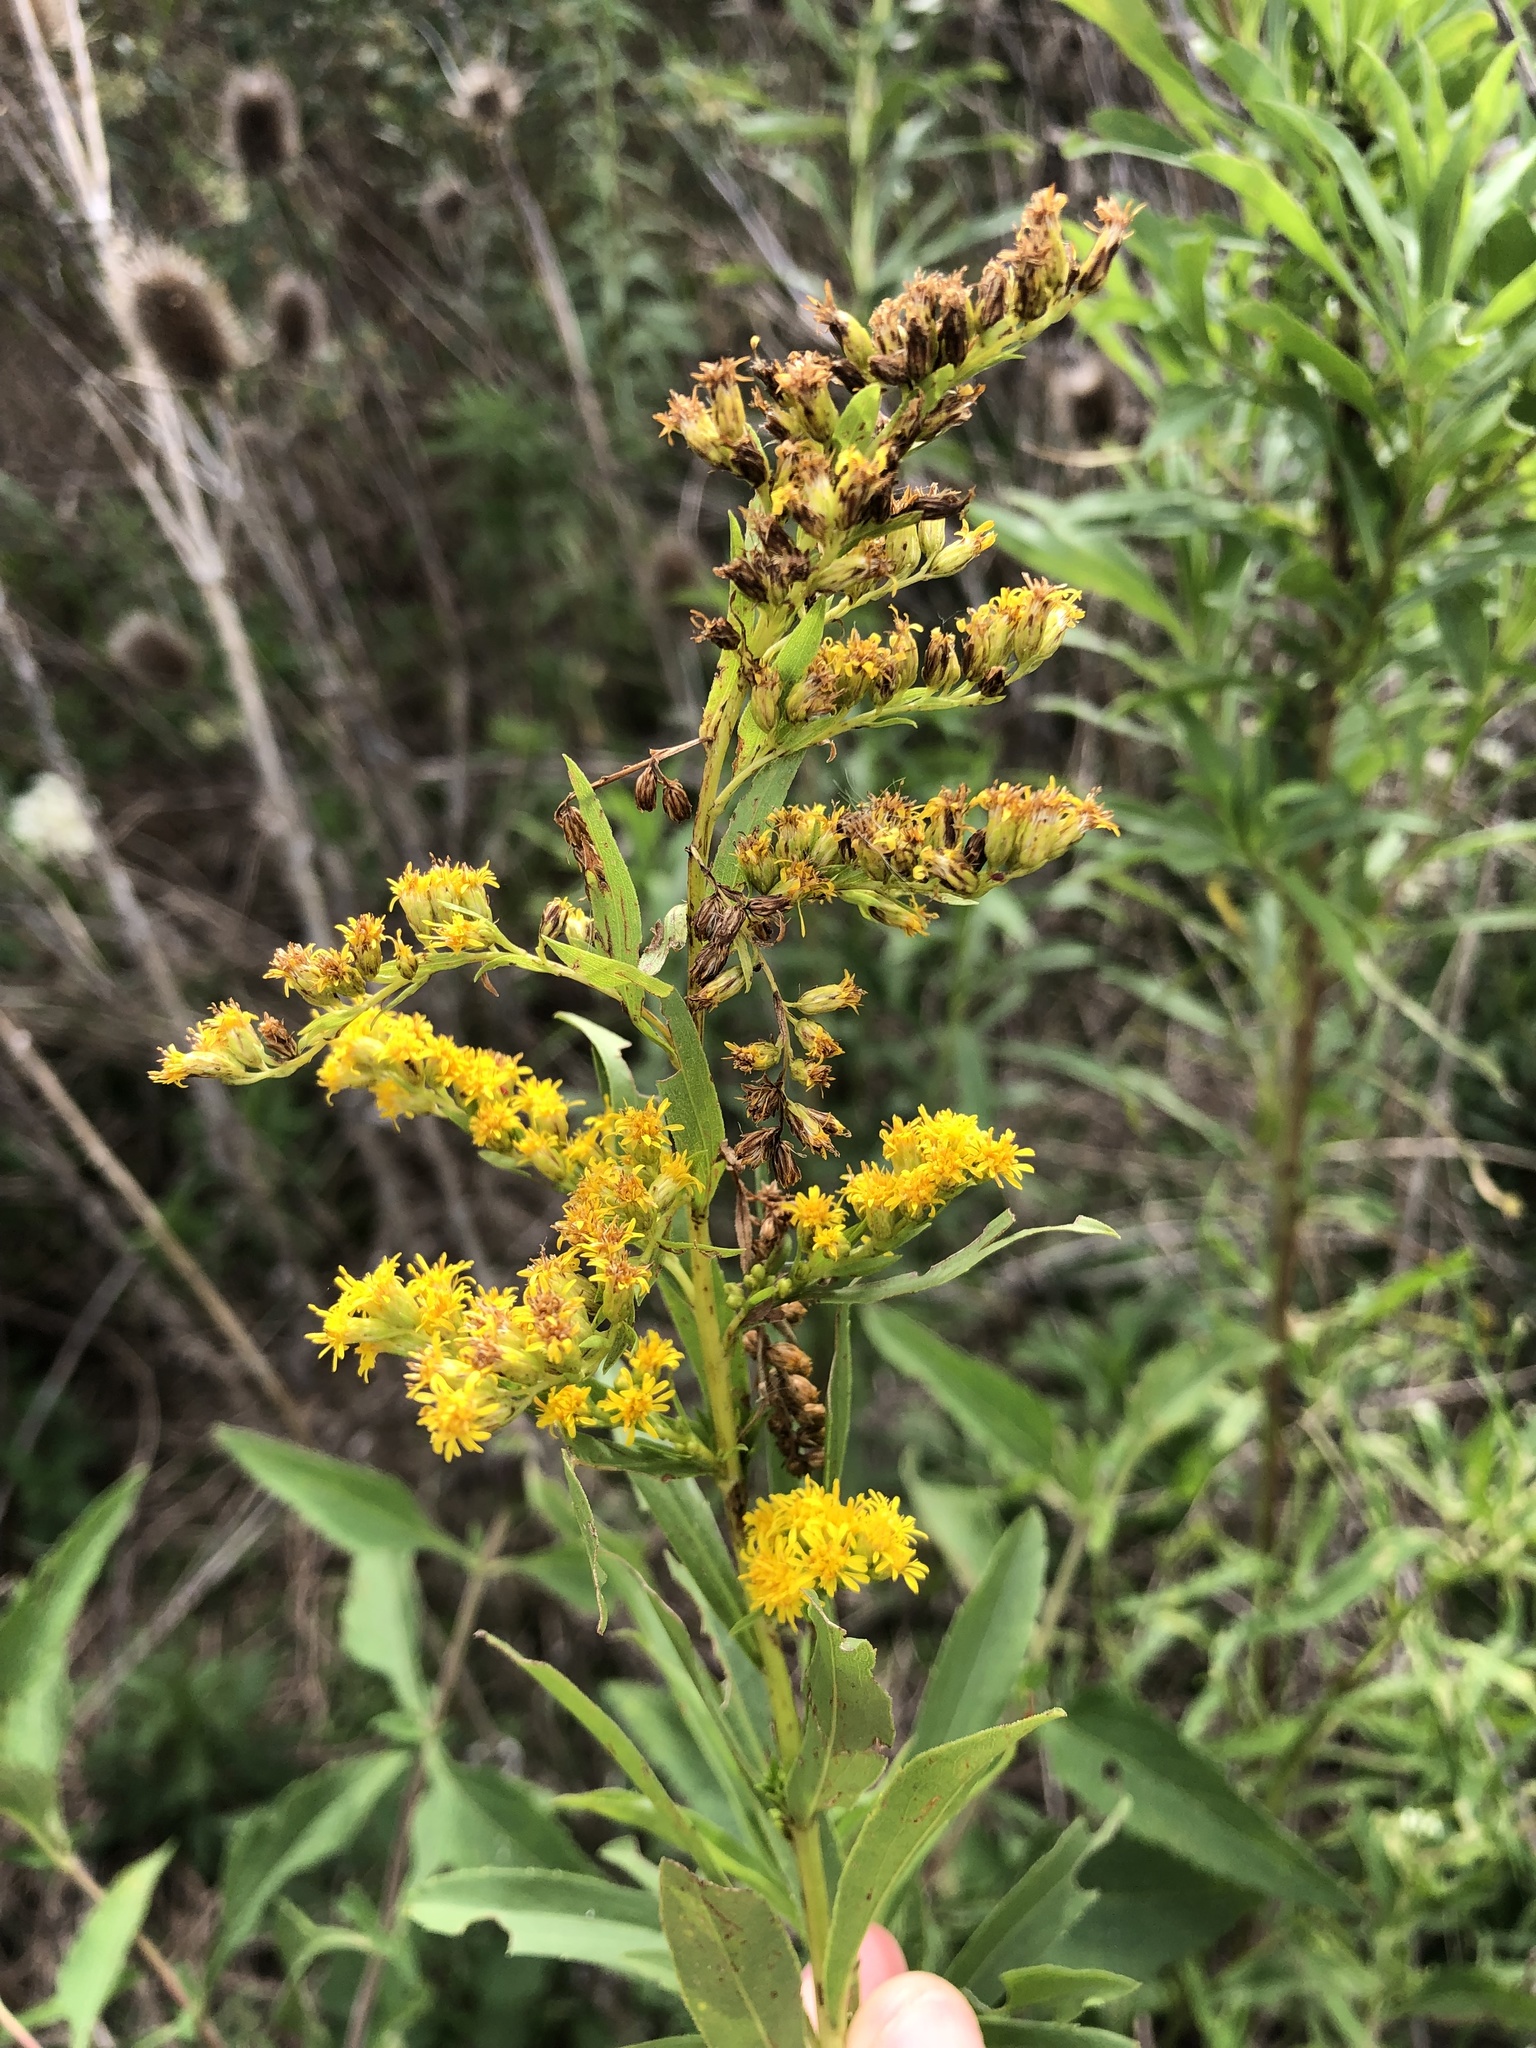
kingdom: Plantae
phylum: Tracheophyta
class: Magnoliopsida
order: Asterales
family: Asteraceae
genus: Solidago
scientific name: Solidago chilensis
